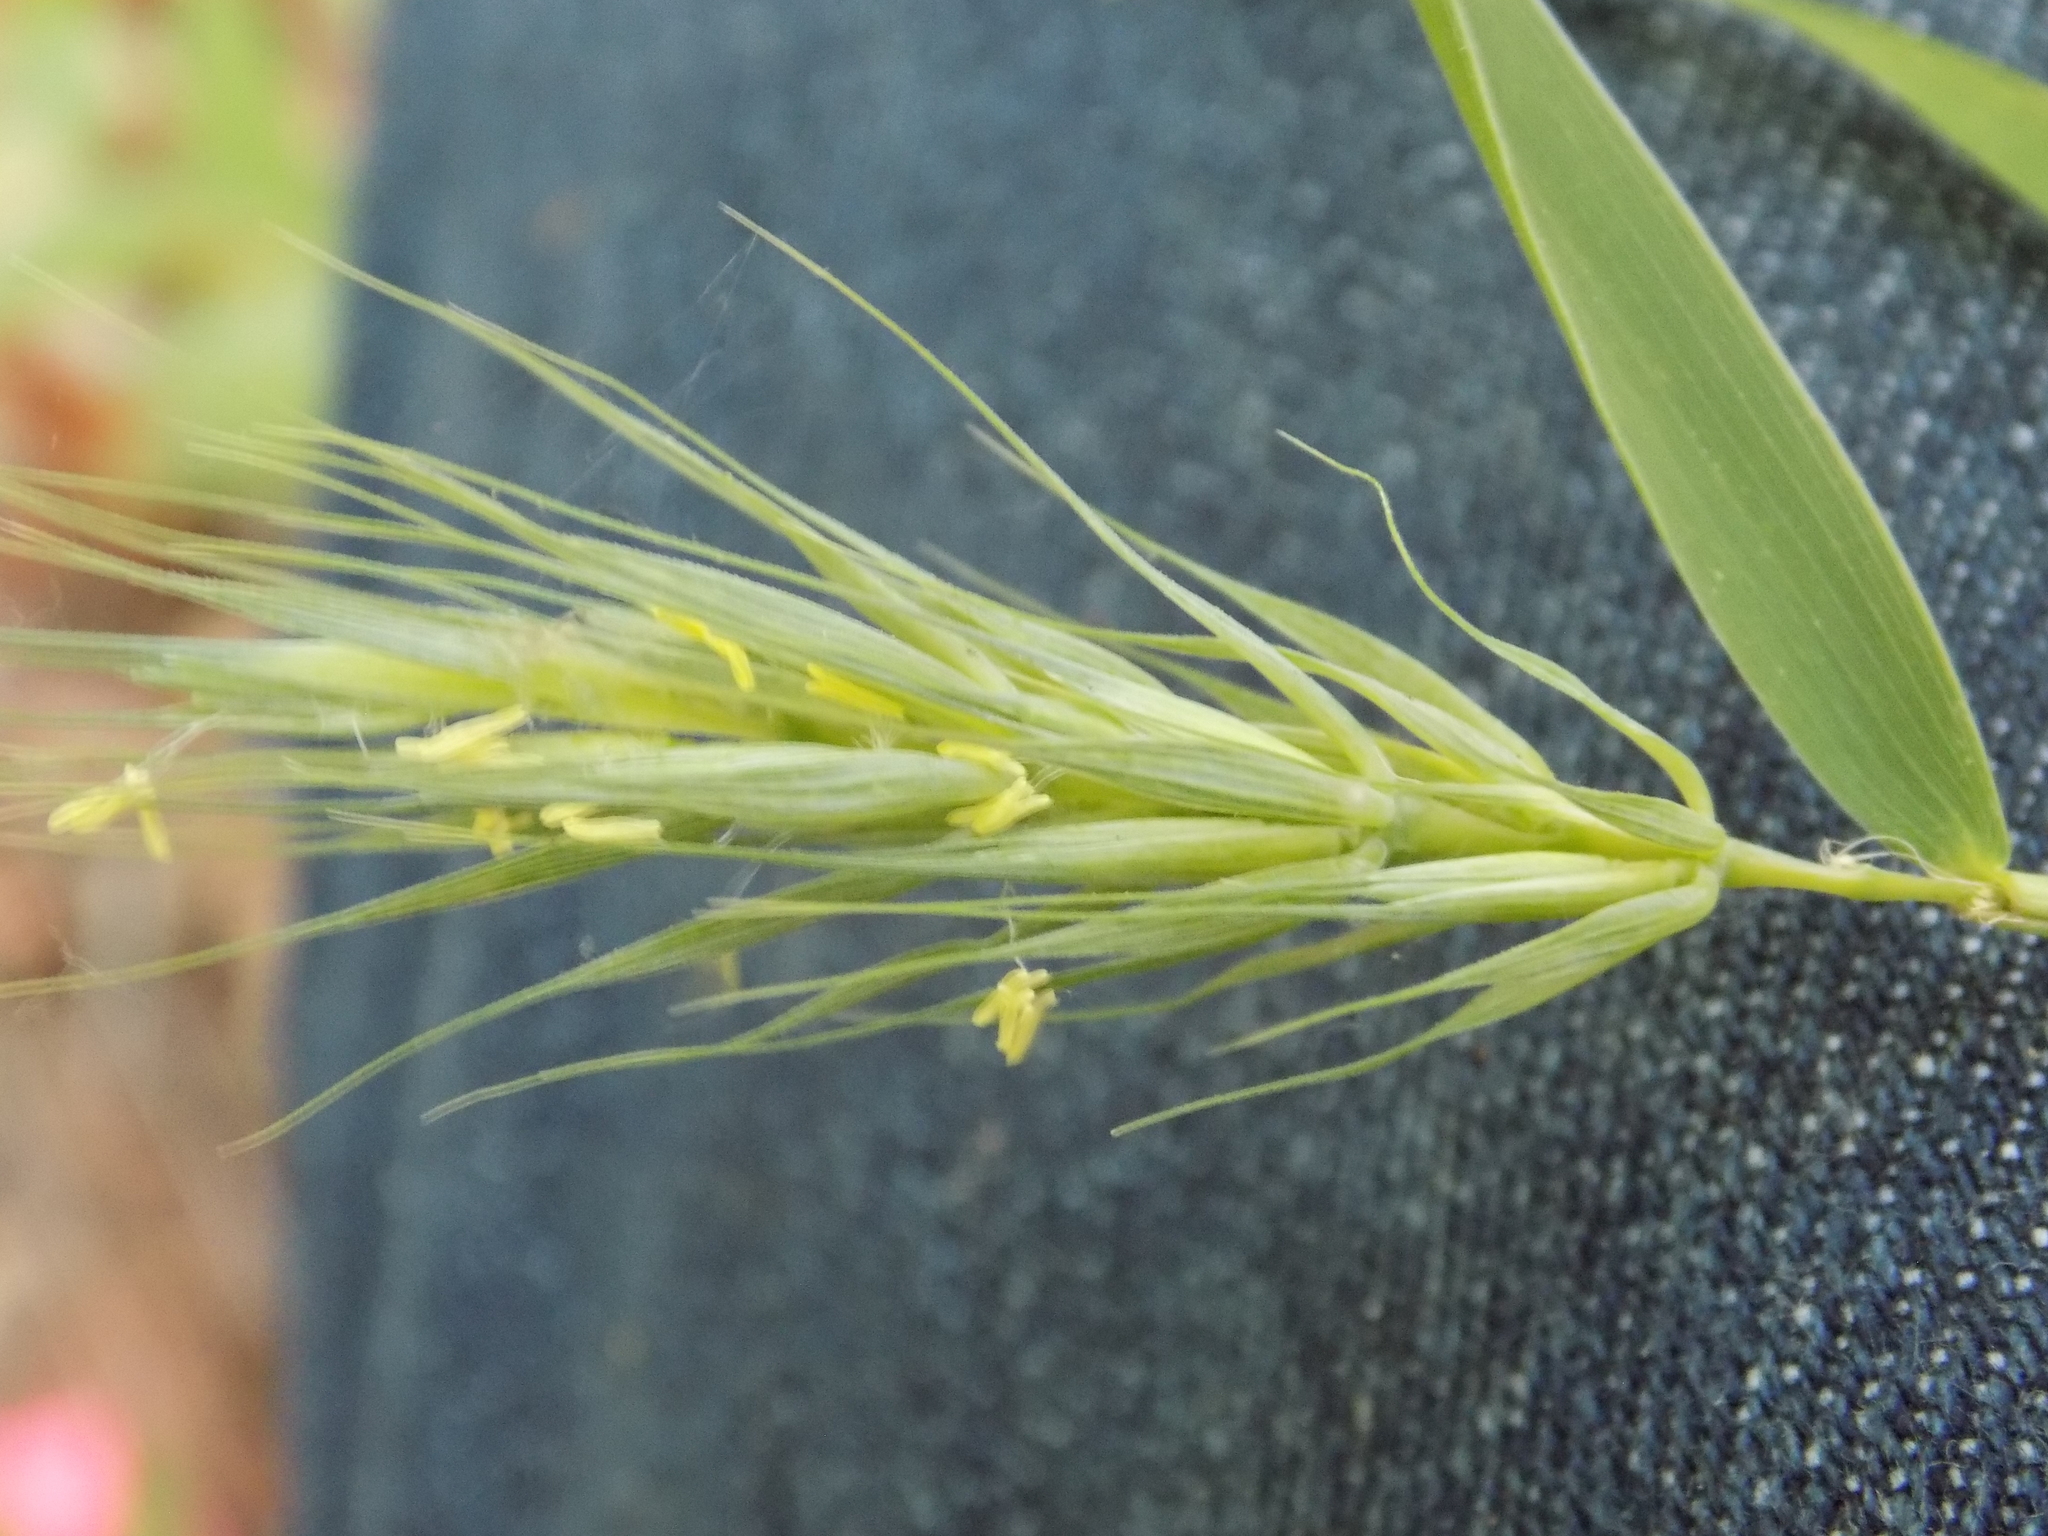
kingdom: Plantae
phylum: Tracheophyta
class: Liliopsida
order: Poales
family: Poaceae
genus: Elymus
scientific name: Elymus macgregorii
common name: Early wild rye
